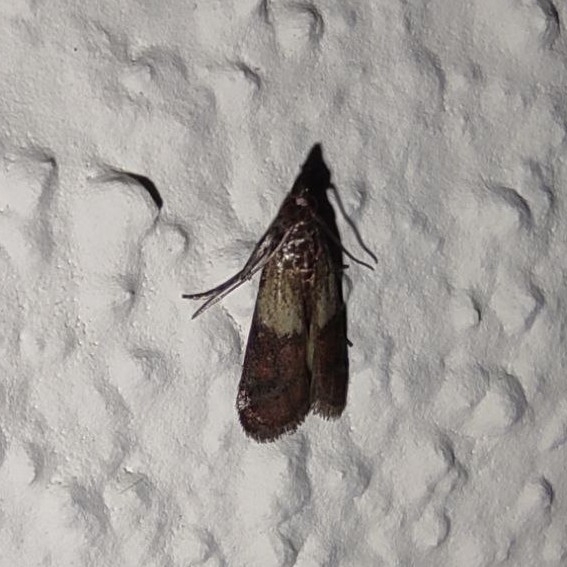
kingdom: Animalia
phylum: Arthropoda
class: Insecta
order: Lepidoptera
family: Pyralidae
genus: Plodia
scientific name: Plodia interpunctella
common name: Indian meal moth
